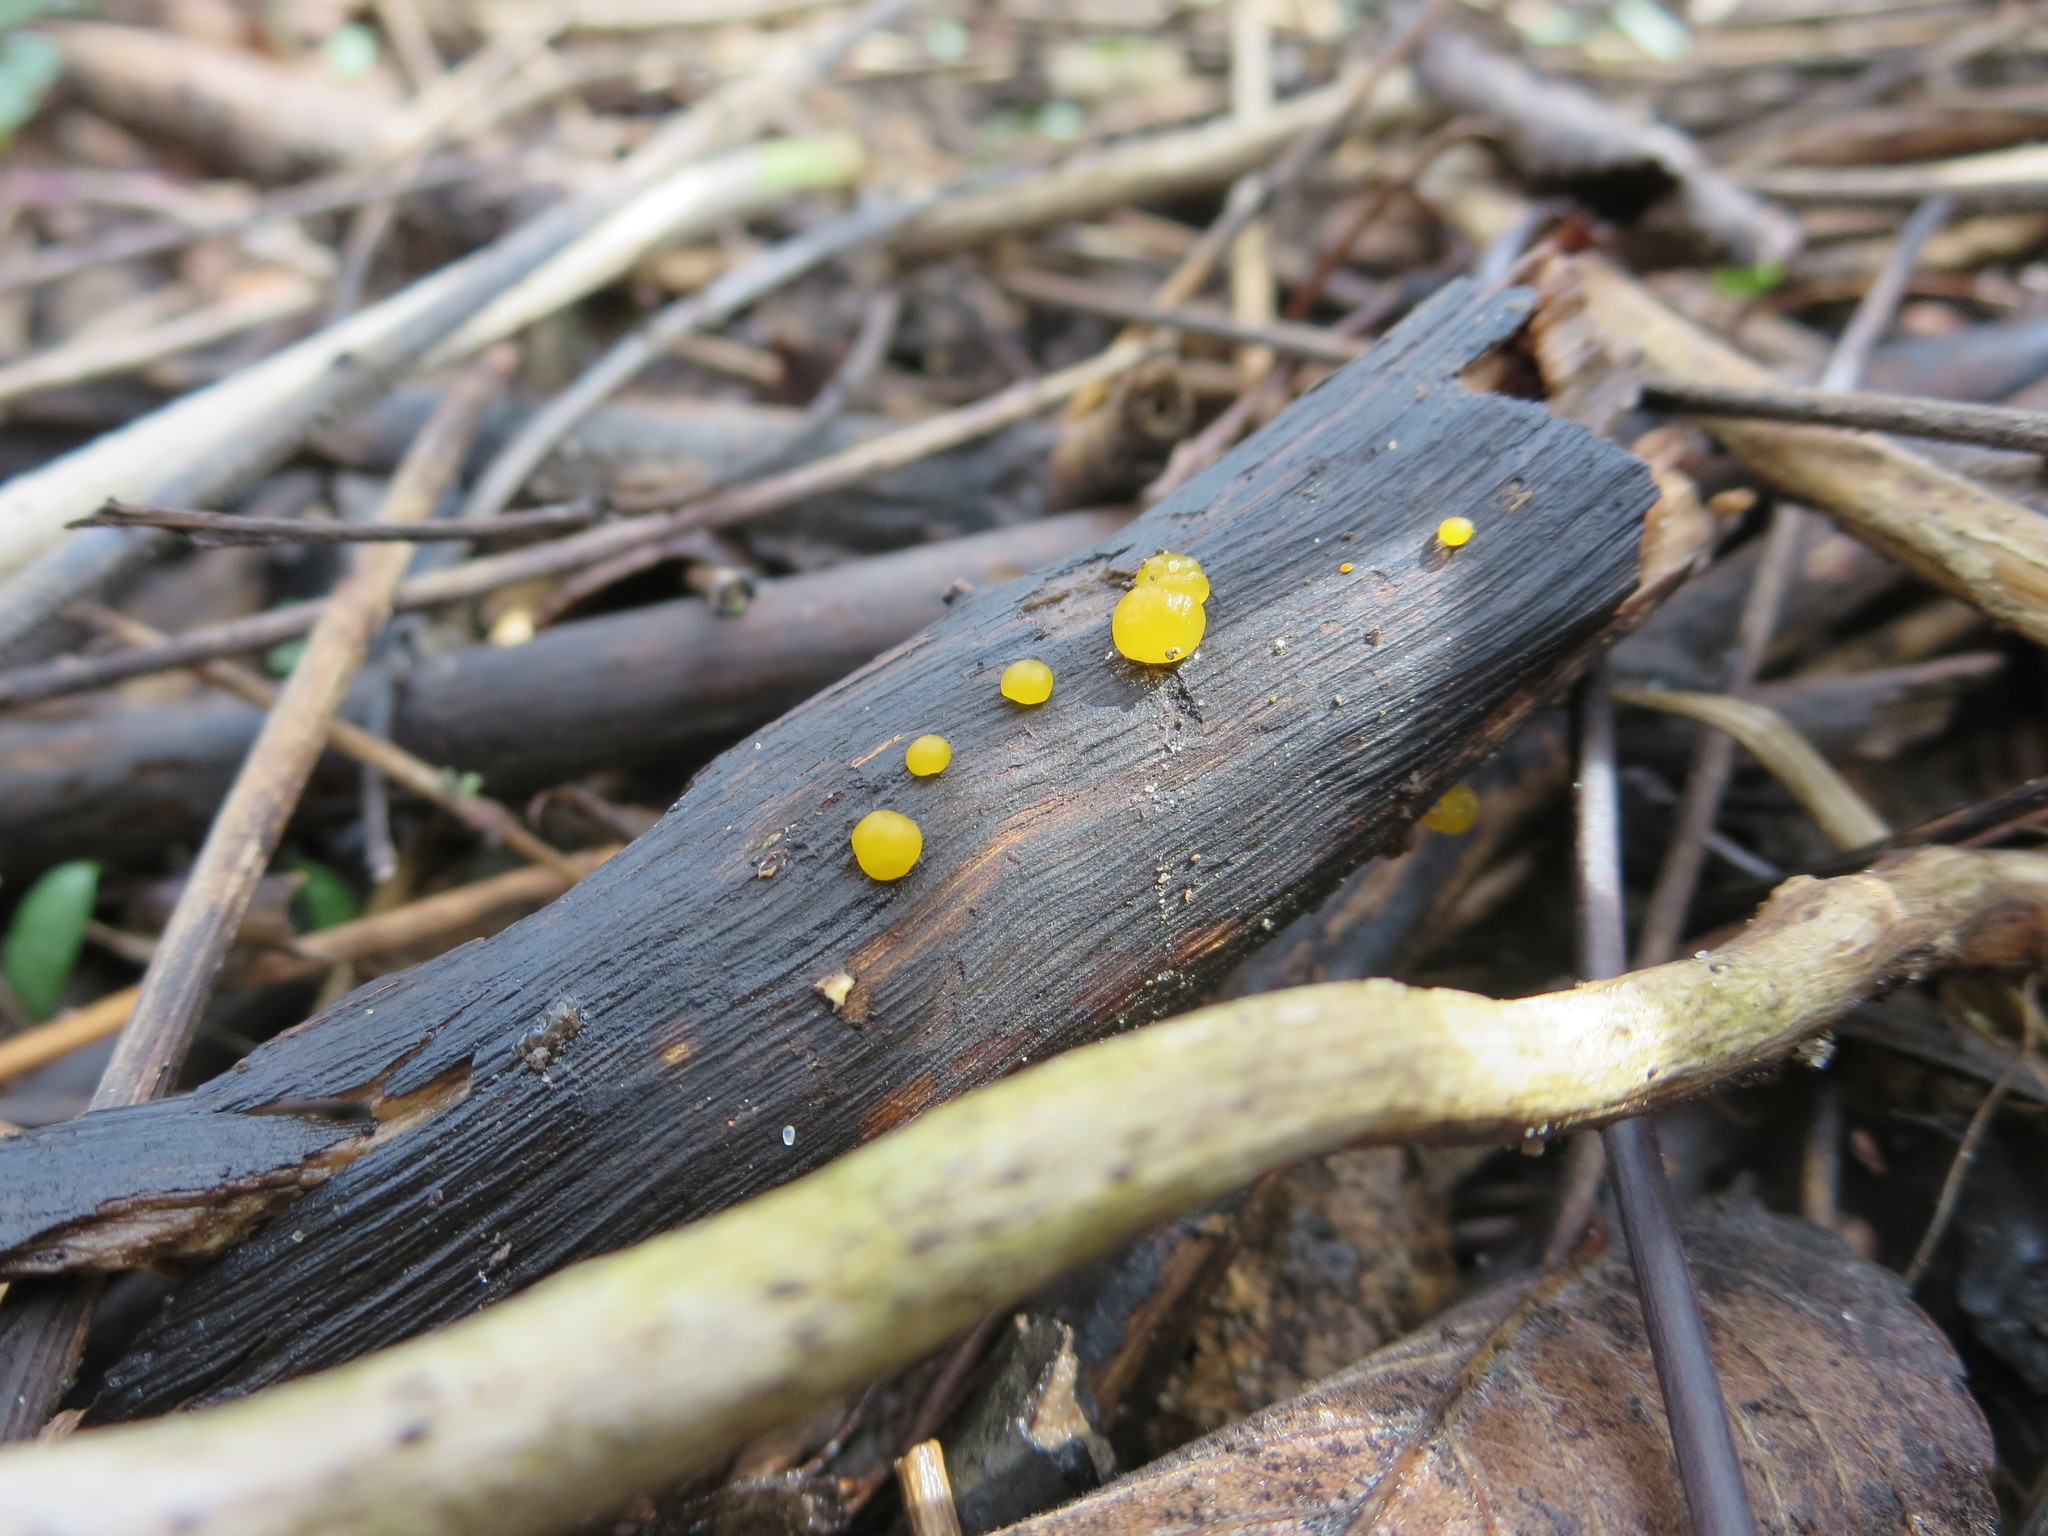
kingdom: Fungi
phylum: Basidiomycota
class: Dacrymycetes
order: Dacrymycetales
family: Dacrymycetaceae
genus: Dacrymyces
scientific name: Dacrymyces stillatus
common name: Common jelly spot
